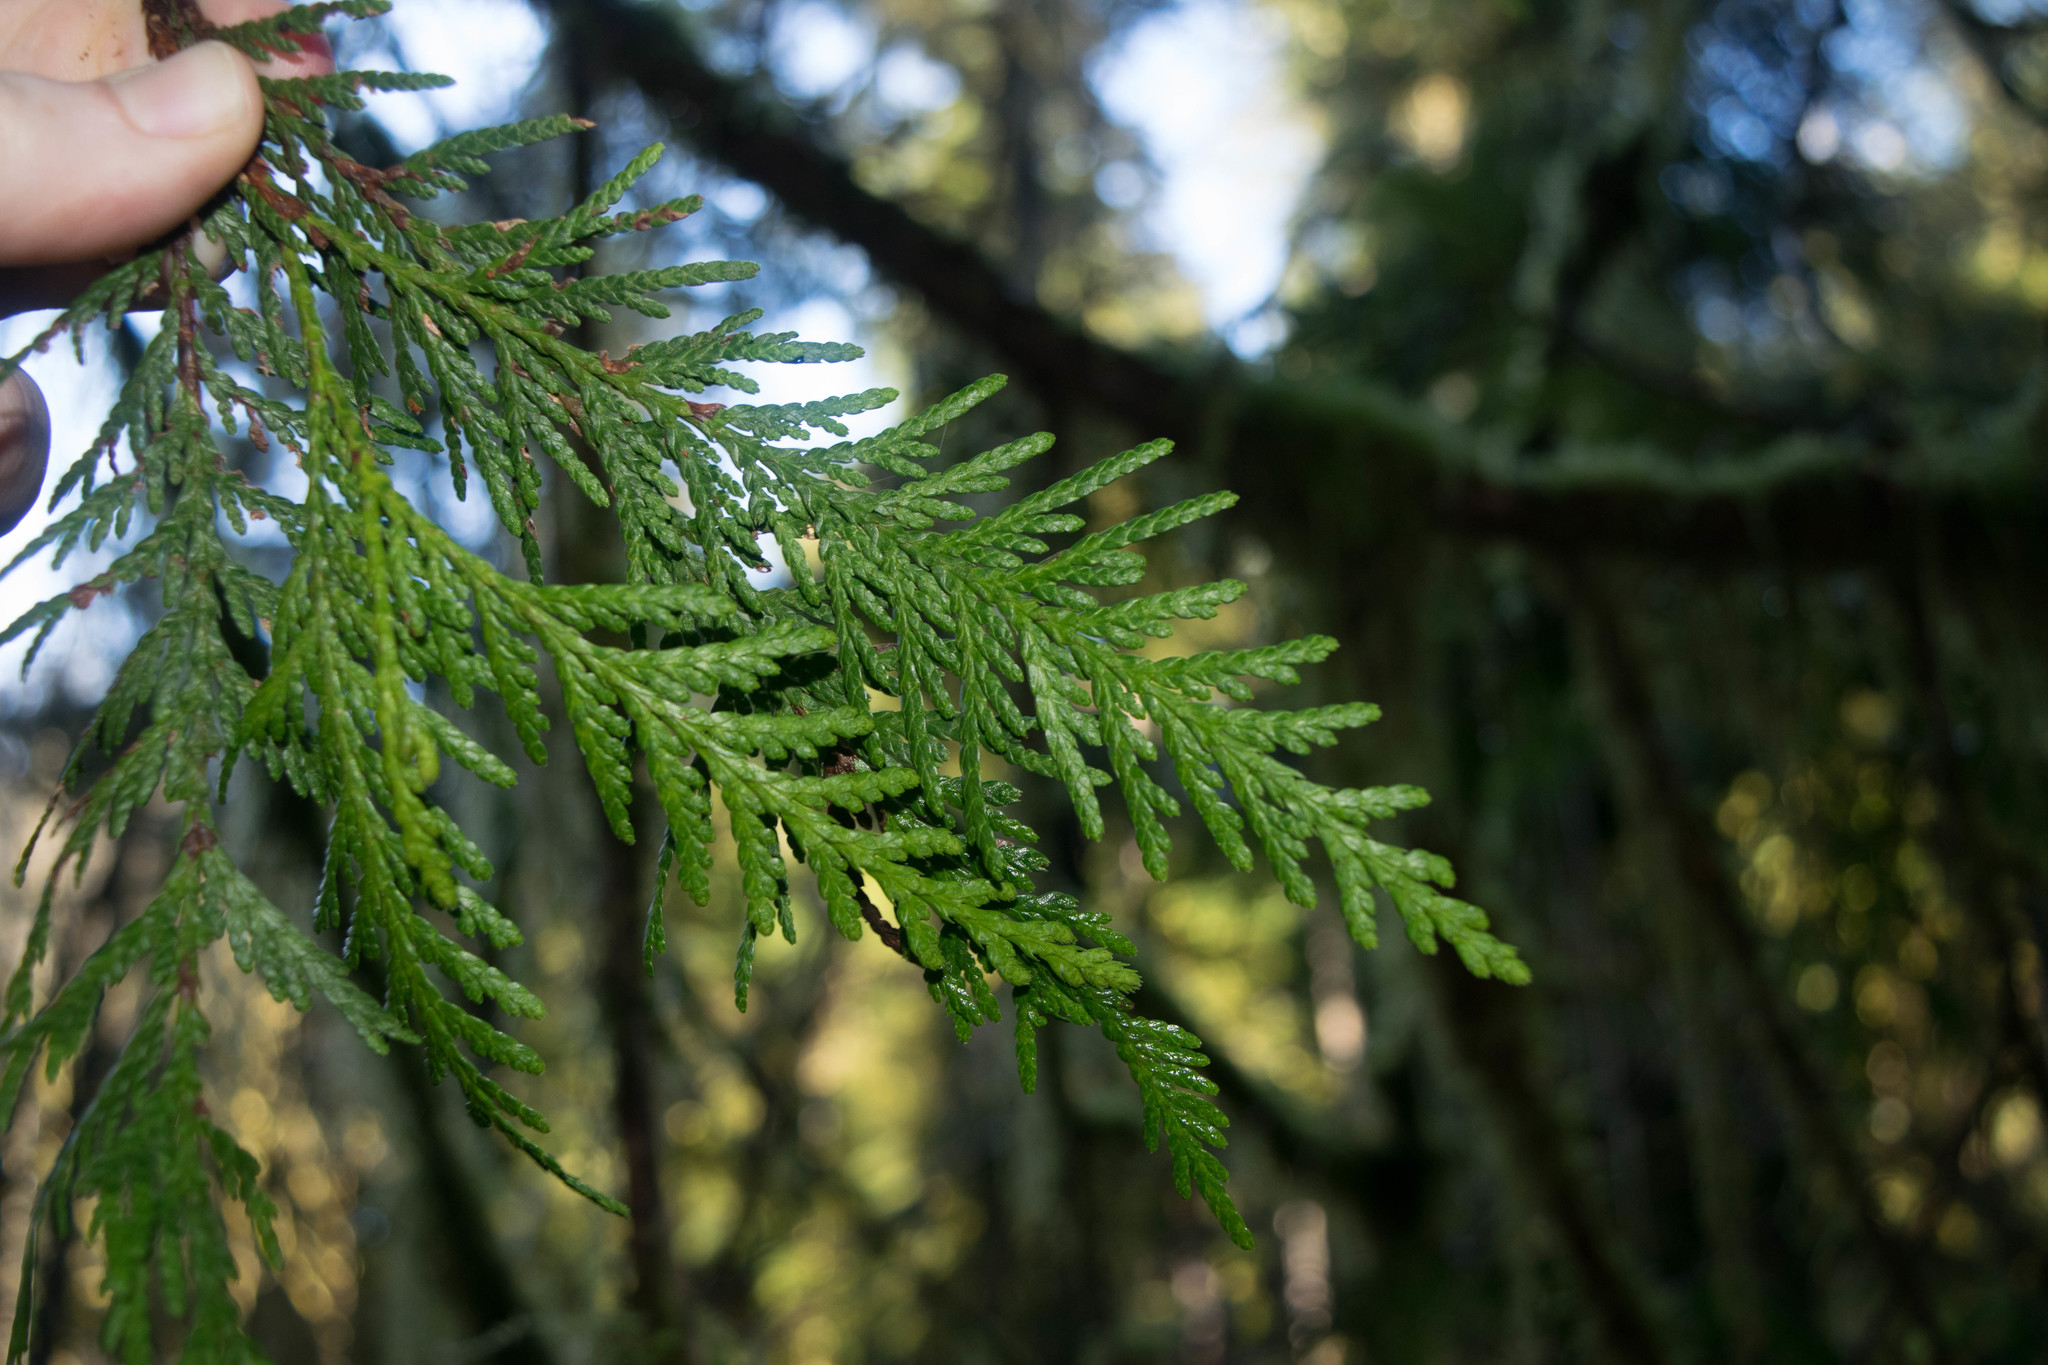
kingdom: Plantae
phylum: Tracheophyta
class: Pinopsida
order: Pinales
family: Cupressaceae
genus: Thuja
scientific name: Thuja plicata
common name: Western red-cedar
